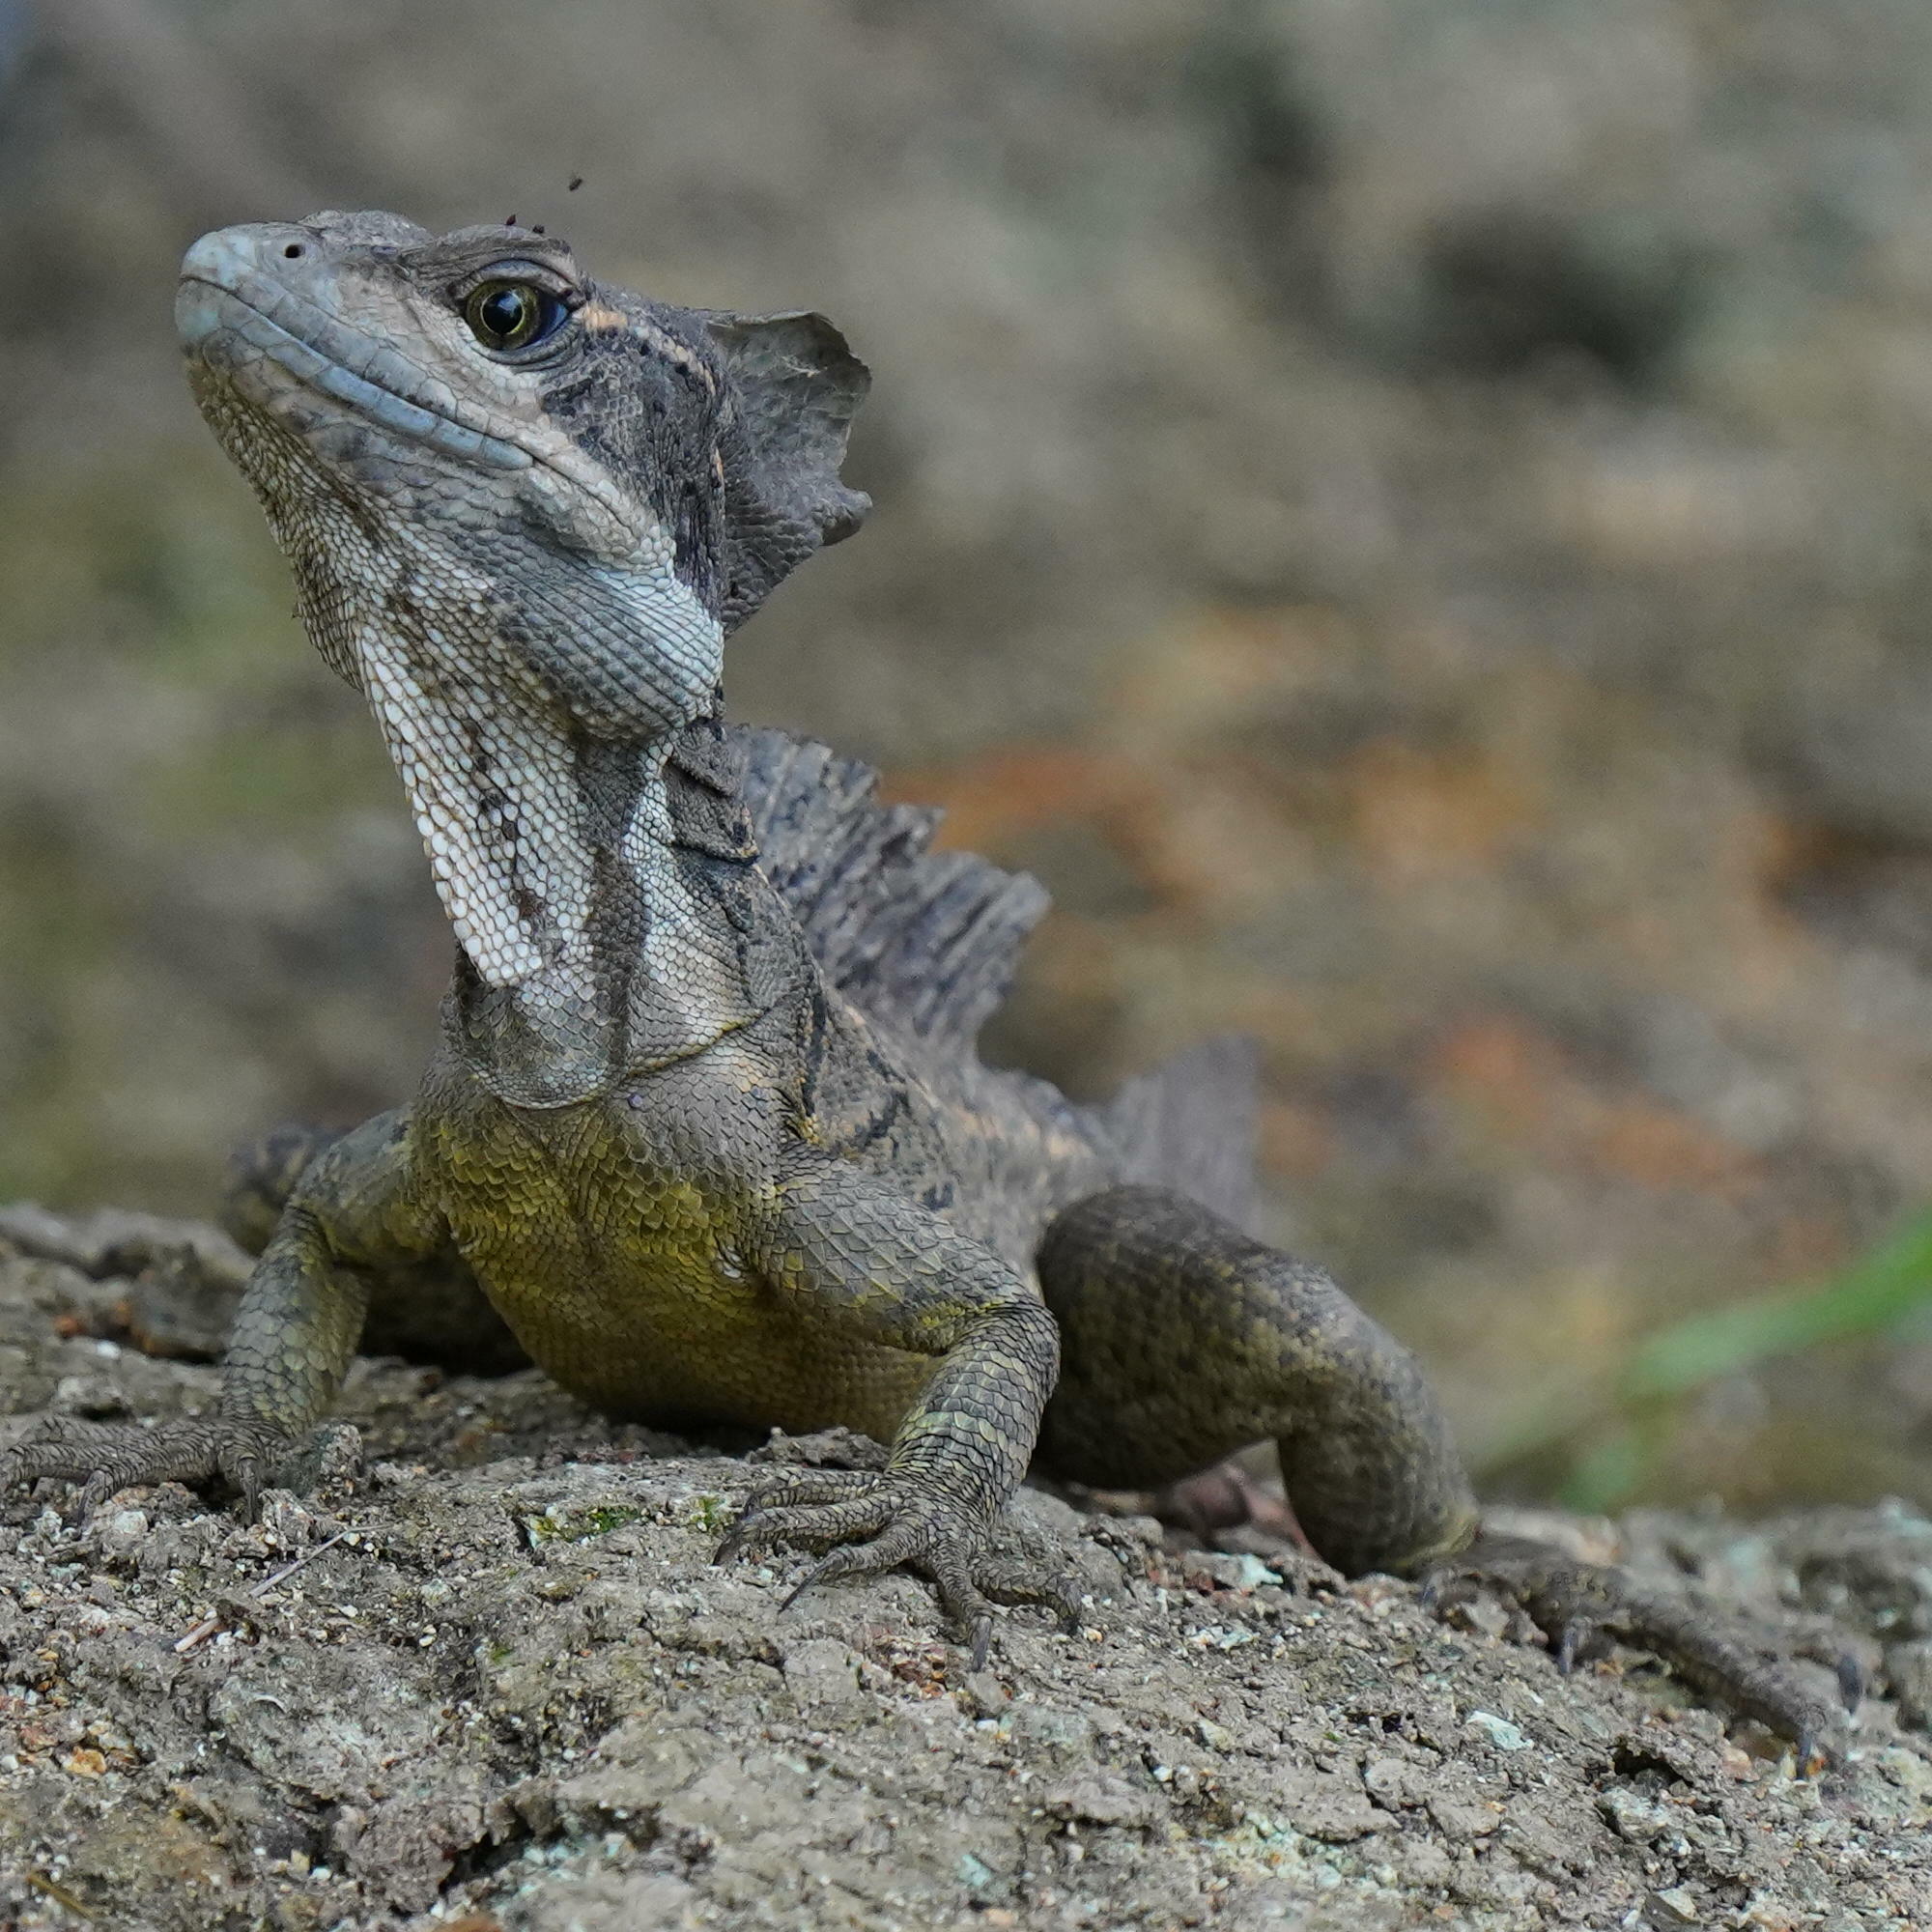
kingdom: Animalia
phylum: Chordata
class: Squamata
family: Corytophanidae
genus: Basiliscus
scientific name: Basiliscus basiliscus
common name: Common basilisk
